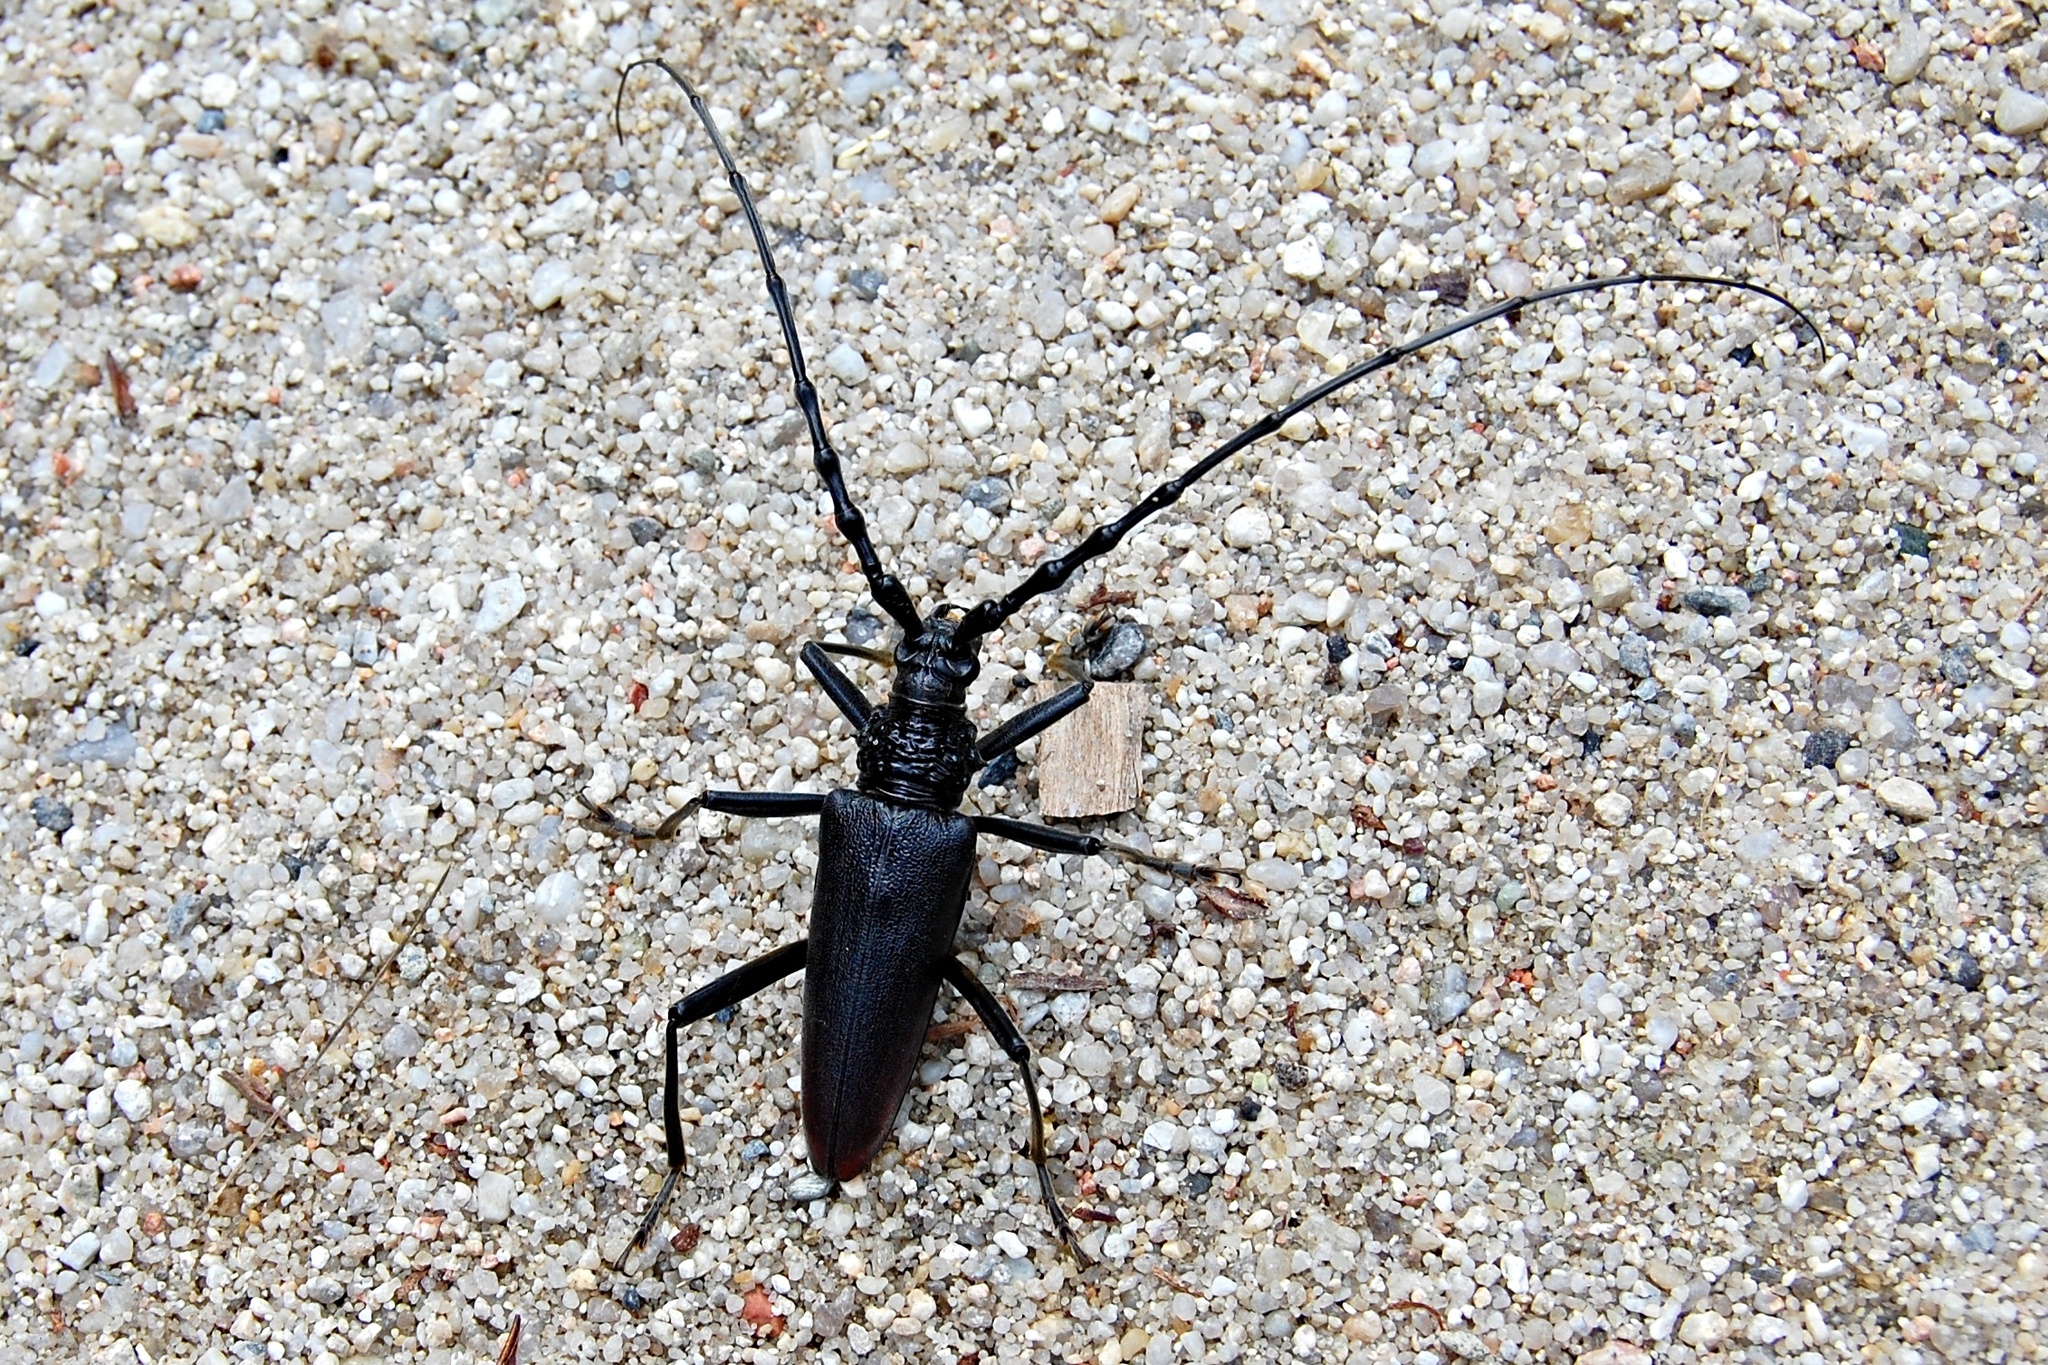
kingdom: Animalia
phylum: Arthropoda
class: Insecta
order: Coleoptera
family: Cerambycidae
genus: Cerambyx
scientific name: Cerambyx cerdo
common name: Cerambyx longicorn
